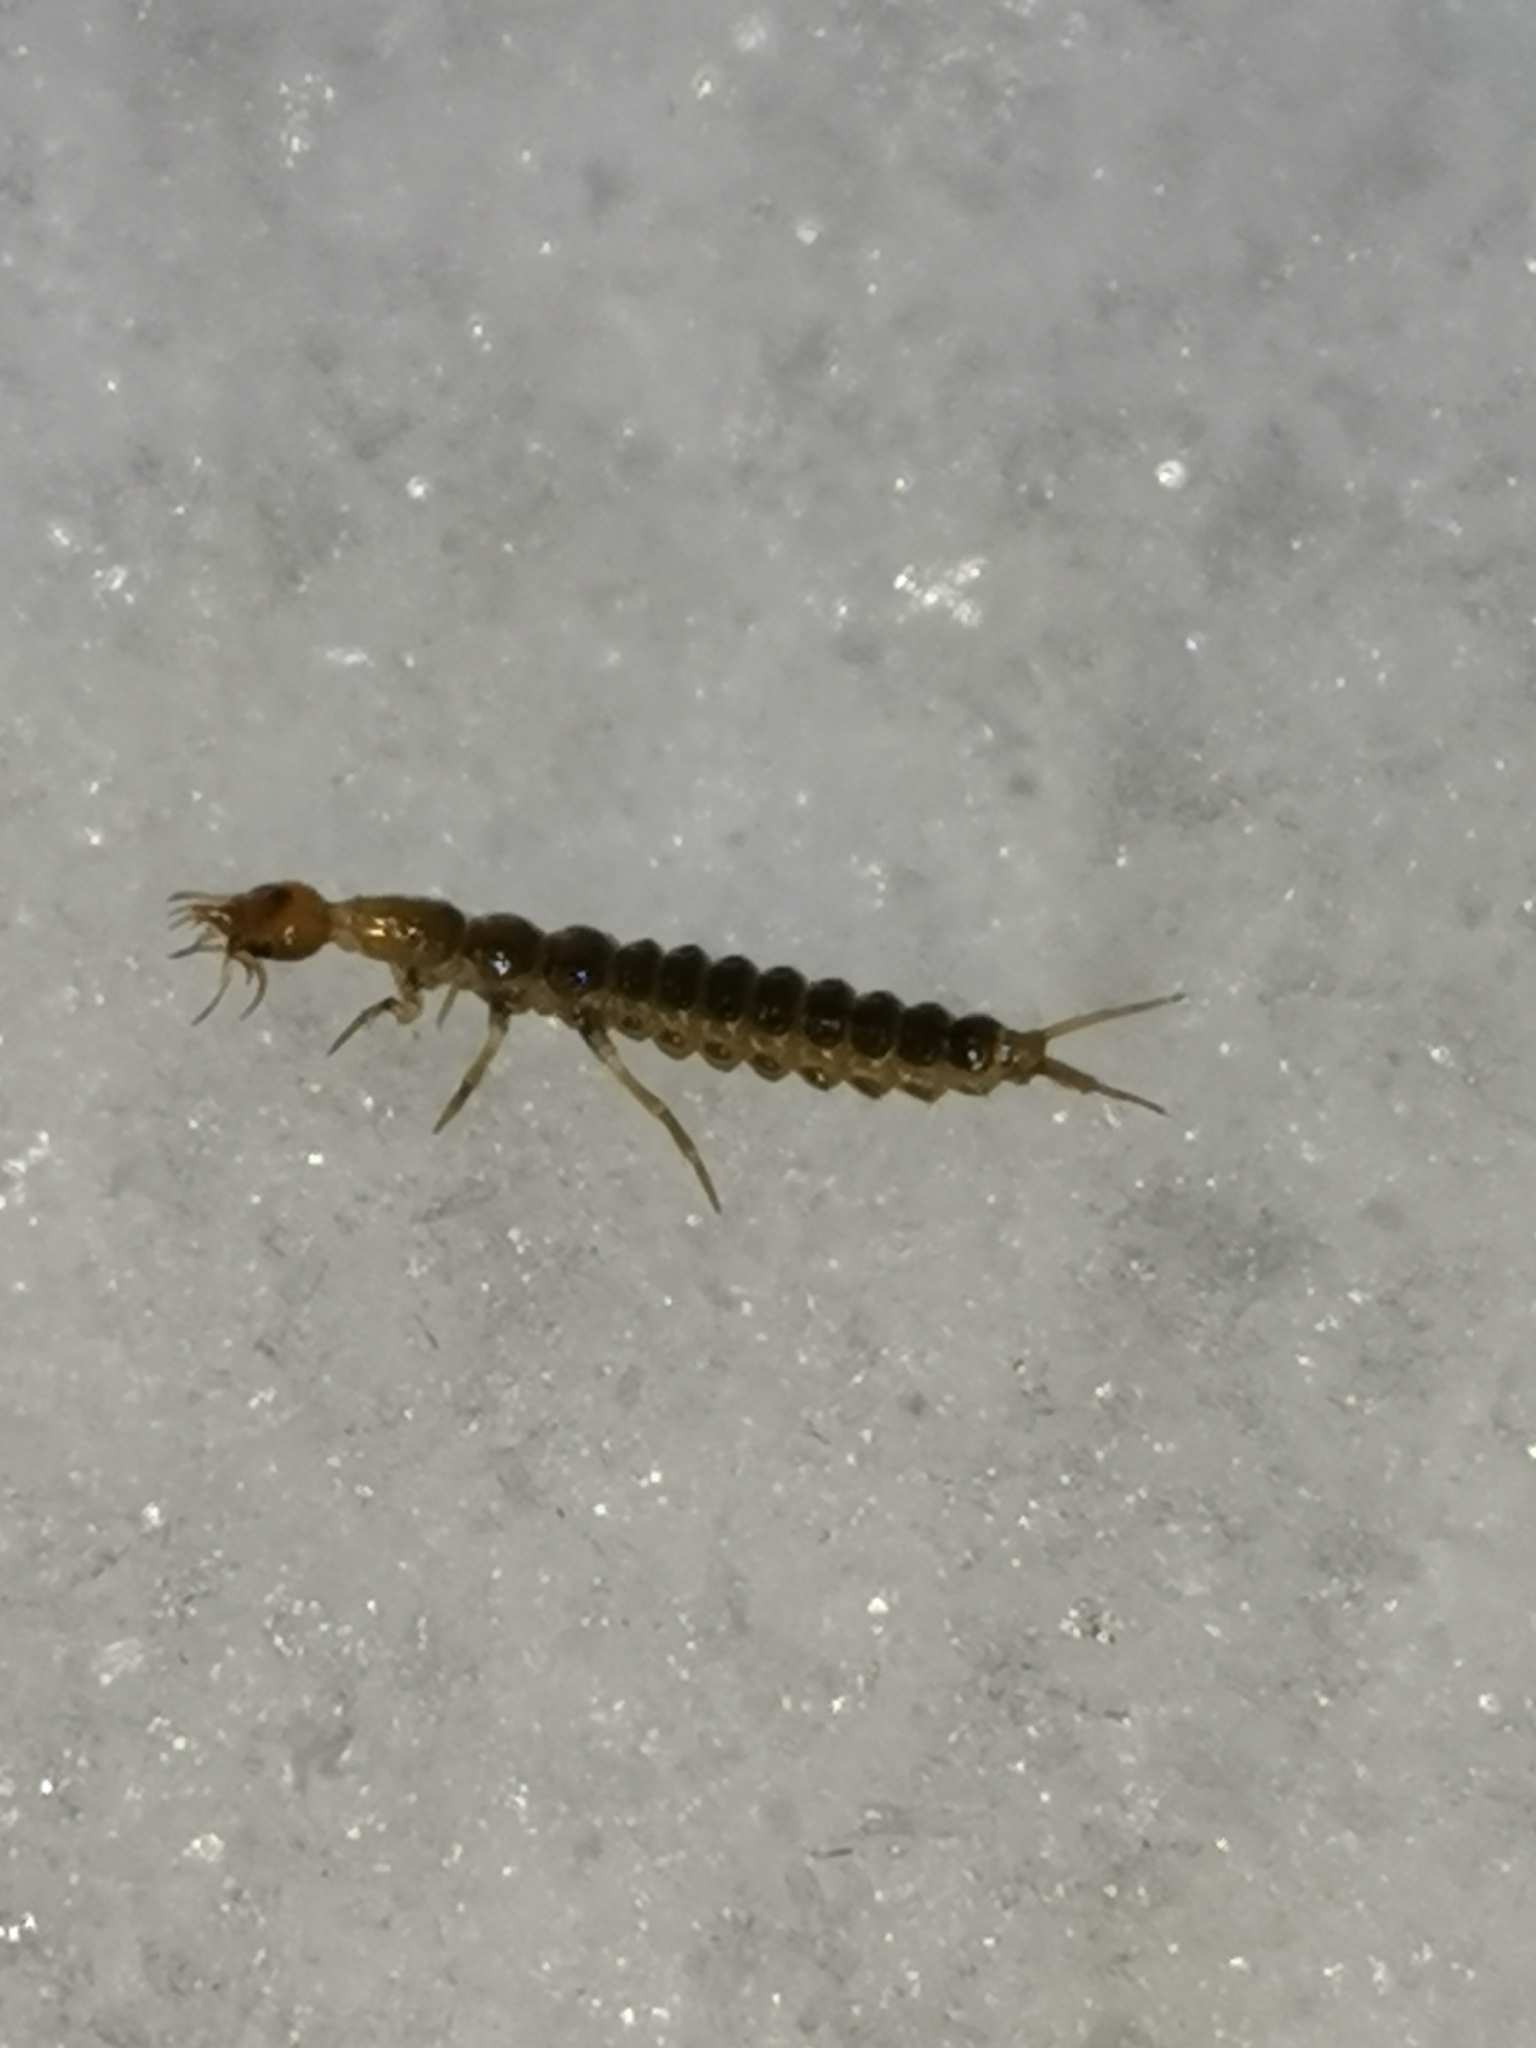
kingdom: Animalia
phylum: Arthropoda
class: Insecta
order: Coleoptera
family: Carabidae
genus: Leistus
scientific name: Leistus
